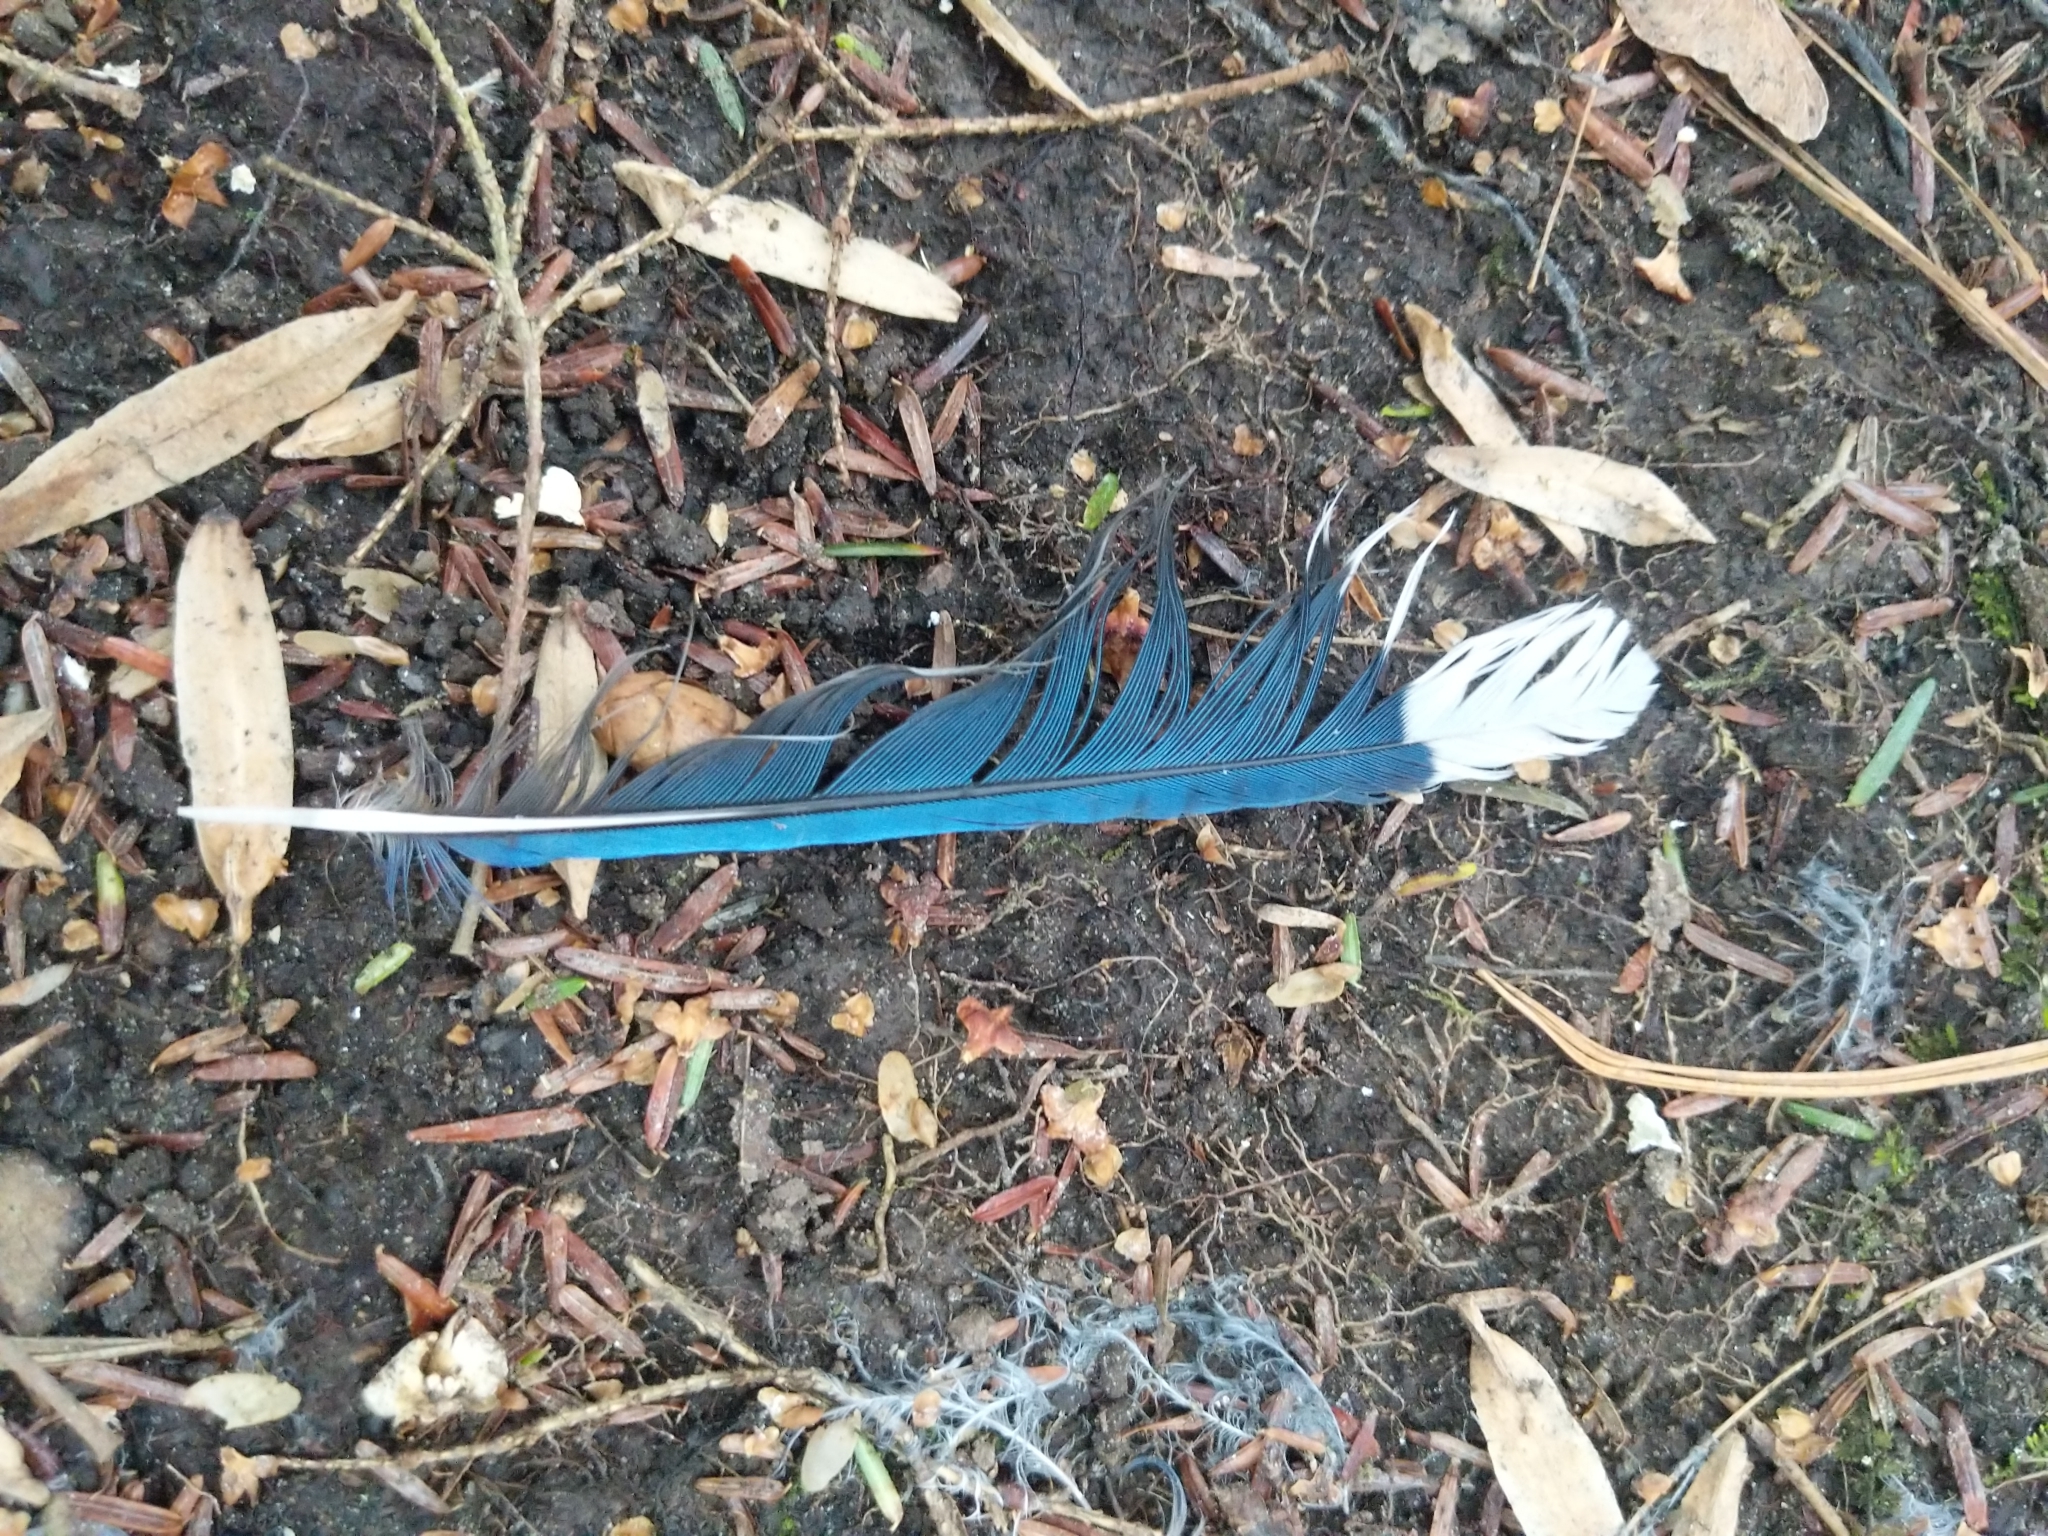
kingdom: Animalia
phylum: Chordata
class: Aves
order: Passeriformes
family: Corvidae
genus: Cyanocitta
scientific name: Cyanocitta cristata
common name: Blue jay
